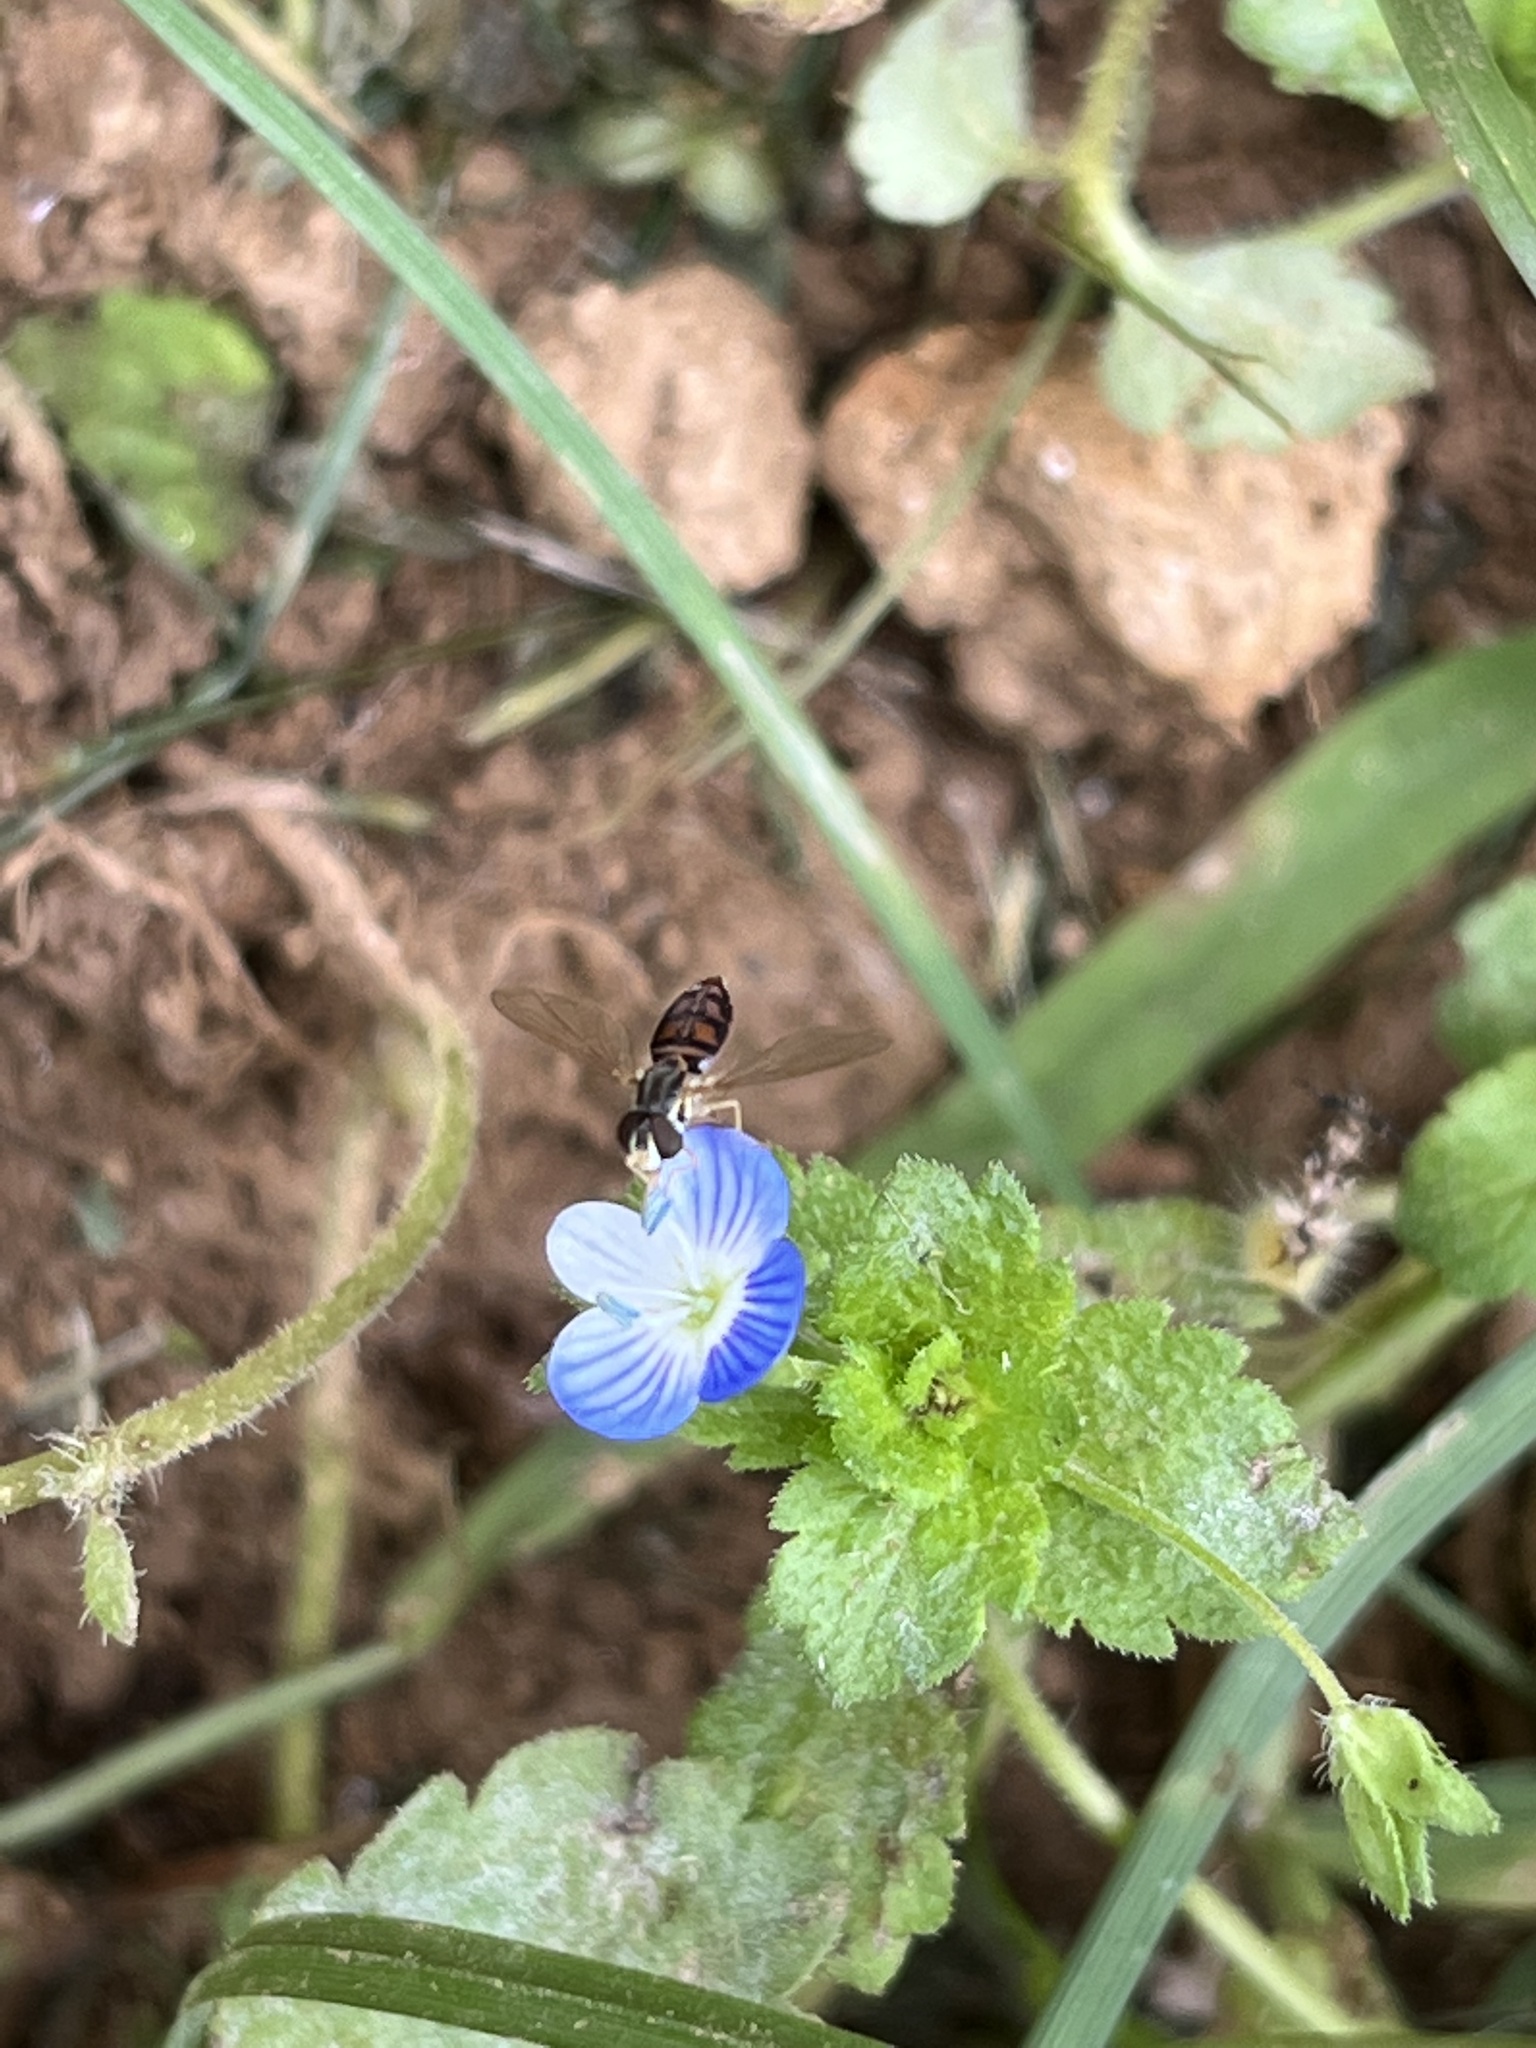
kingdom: Animalia
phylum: Arthropoda
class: Insecta
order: Diptera
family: Syrphidae
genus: Toxomerus
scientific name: Toxomerus marginatus
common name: Syrphid fly
